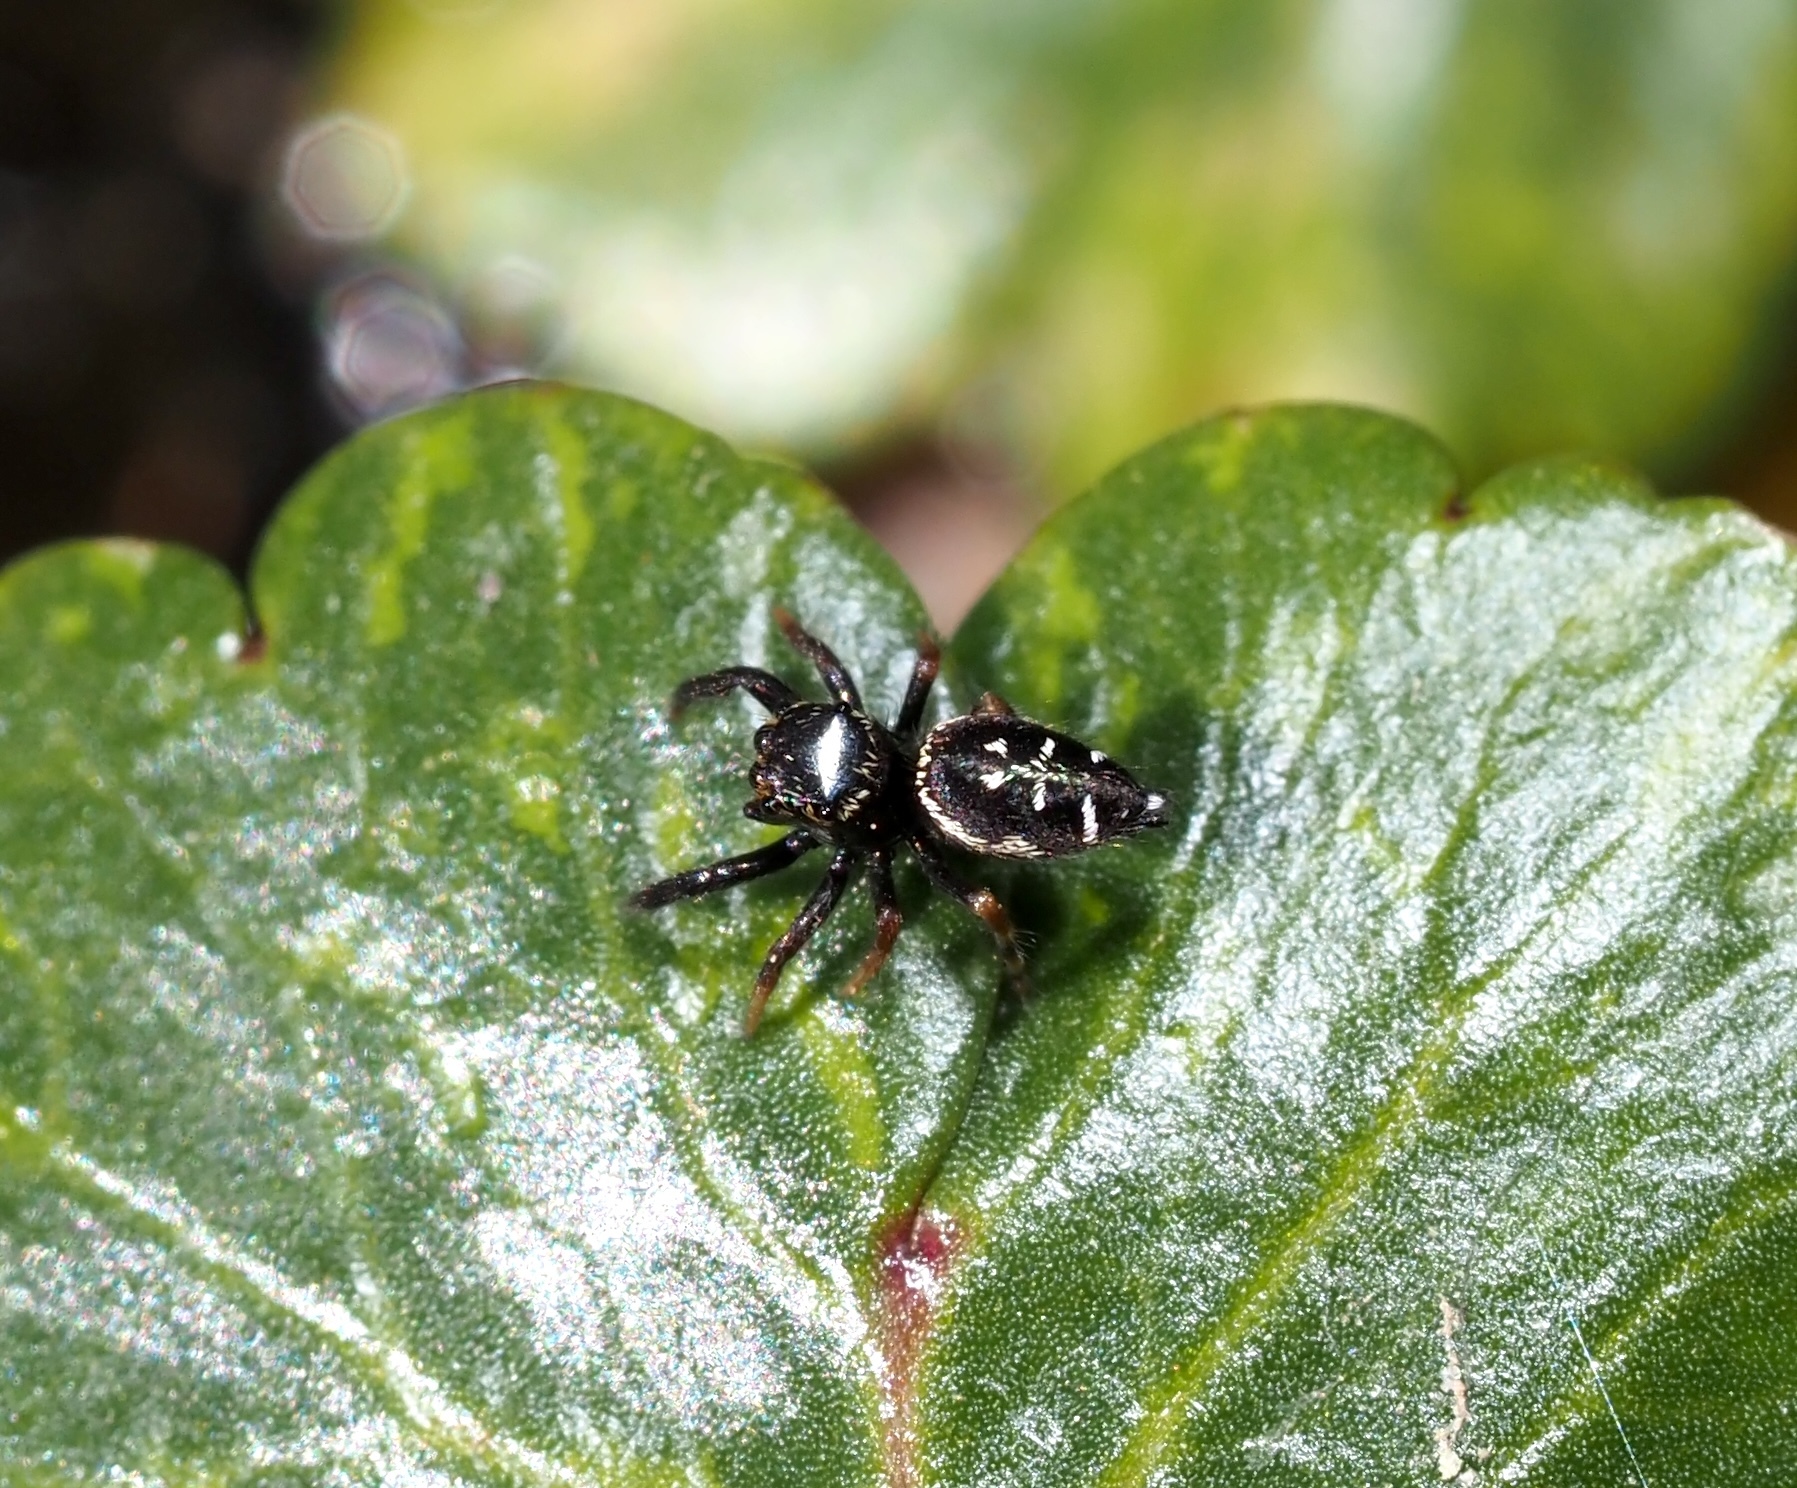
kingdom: Animalia
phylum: Arthropoda
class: Arachnida
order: Araneae
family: Salticidae
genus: Paraphidippus
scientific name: Paraphidippus aurantius
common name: Jumping spiders
